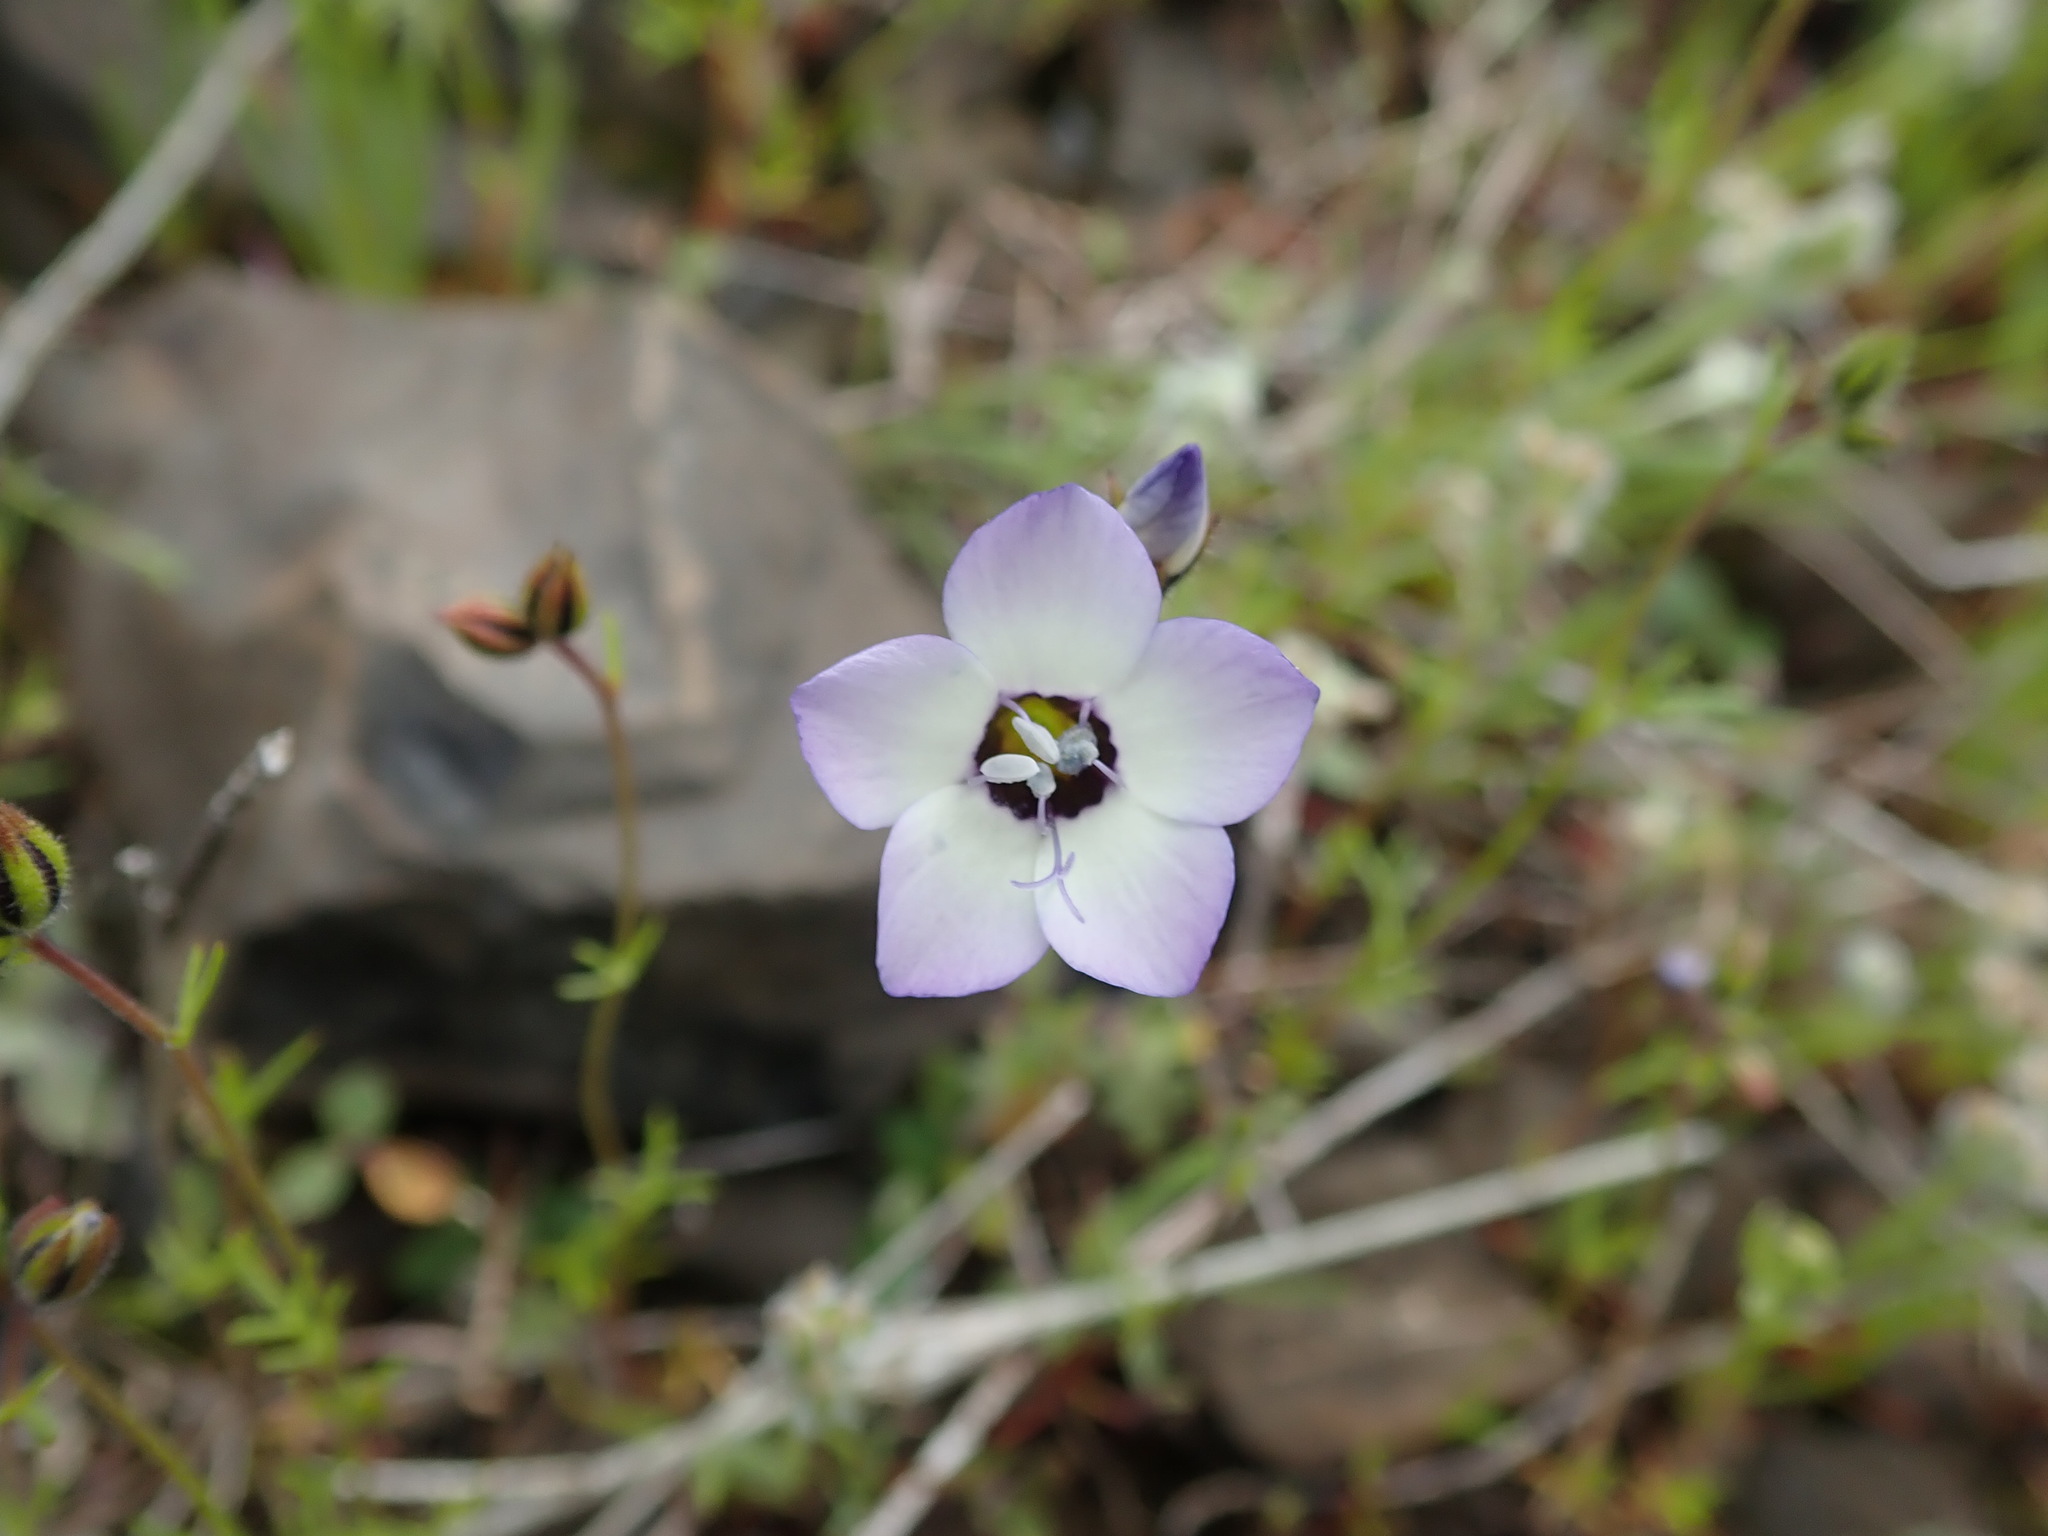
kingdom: Plantae
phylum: Tracheophyta
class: Magnoliopsida
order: Ericales
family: Polemoniaceae
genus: Gilia
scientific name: Gilia tricolor
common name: Bird's-eyes
